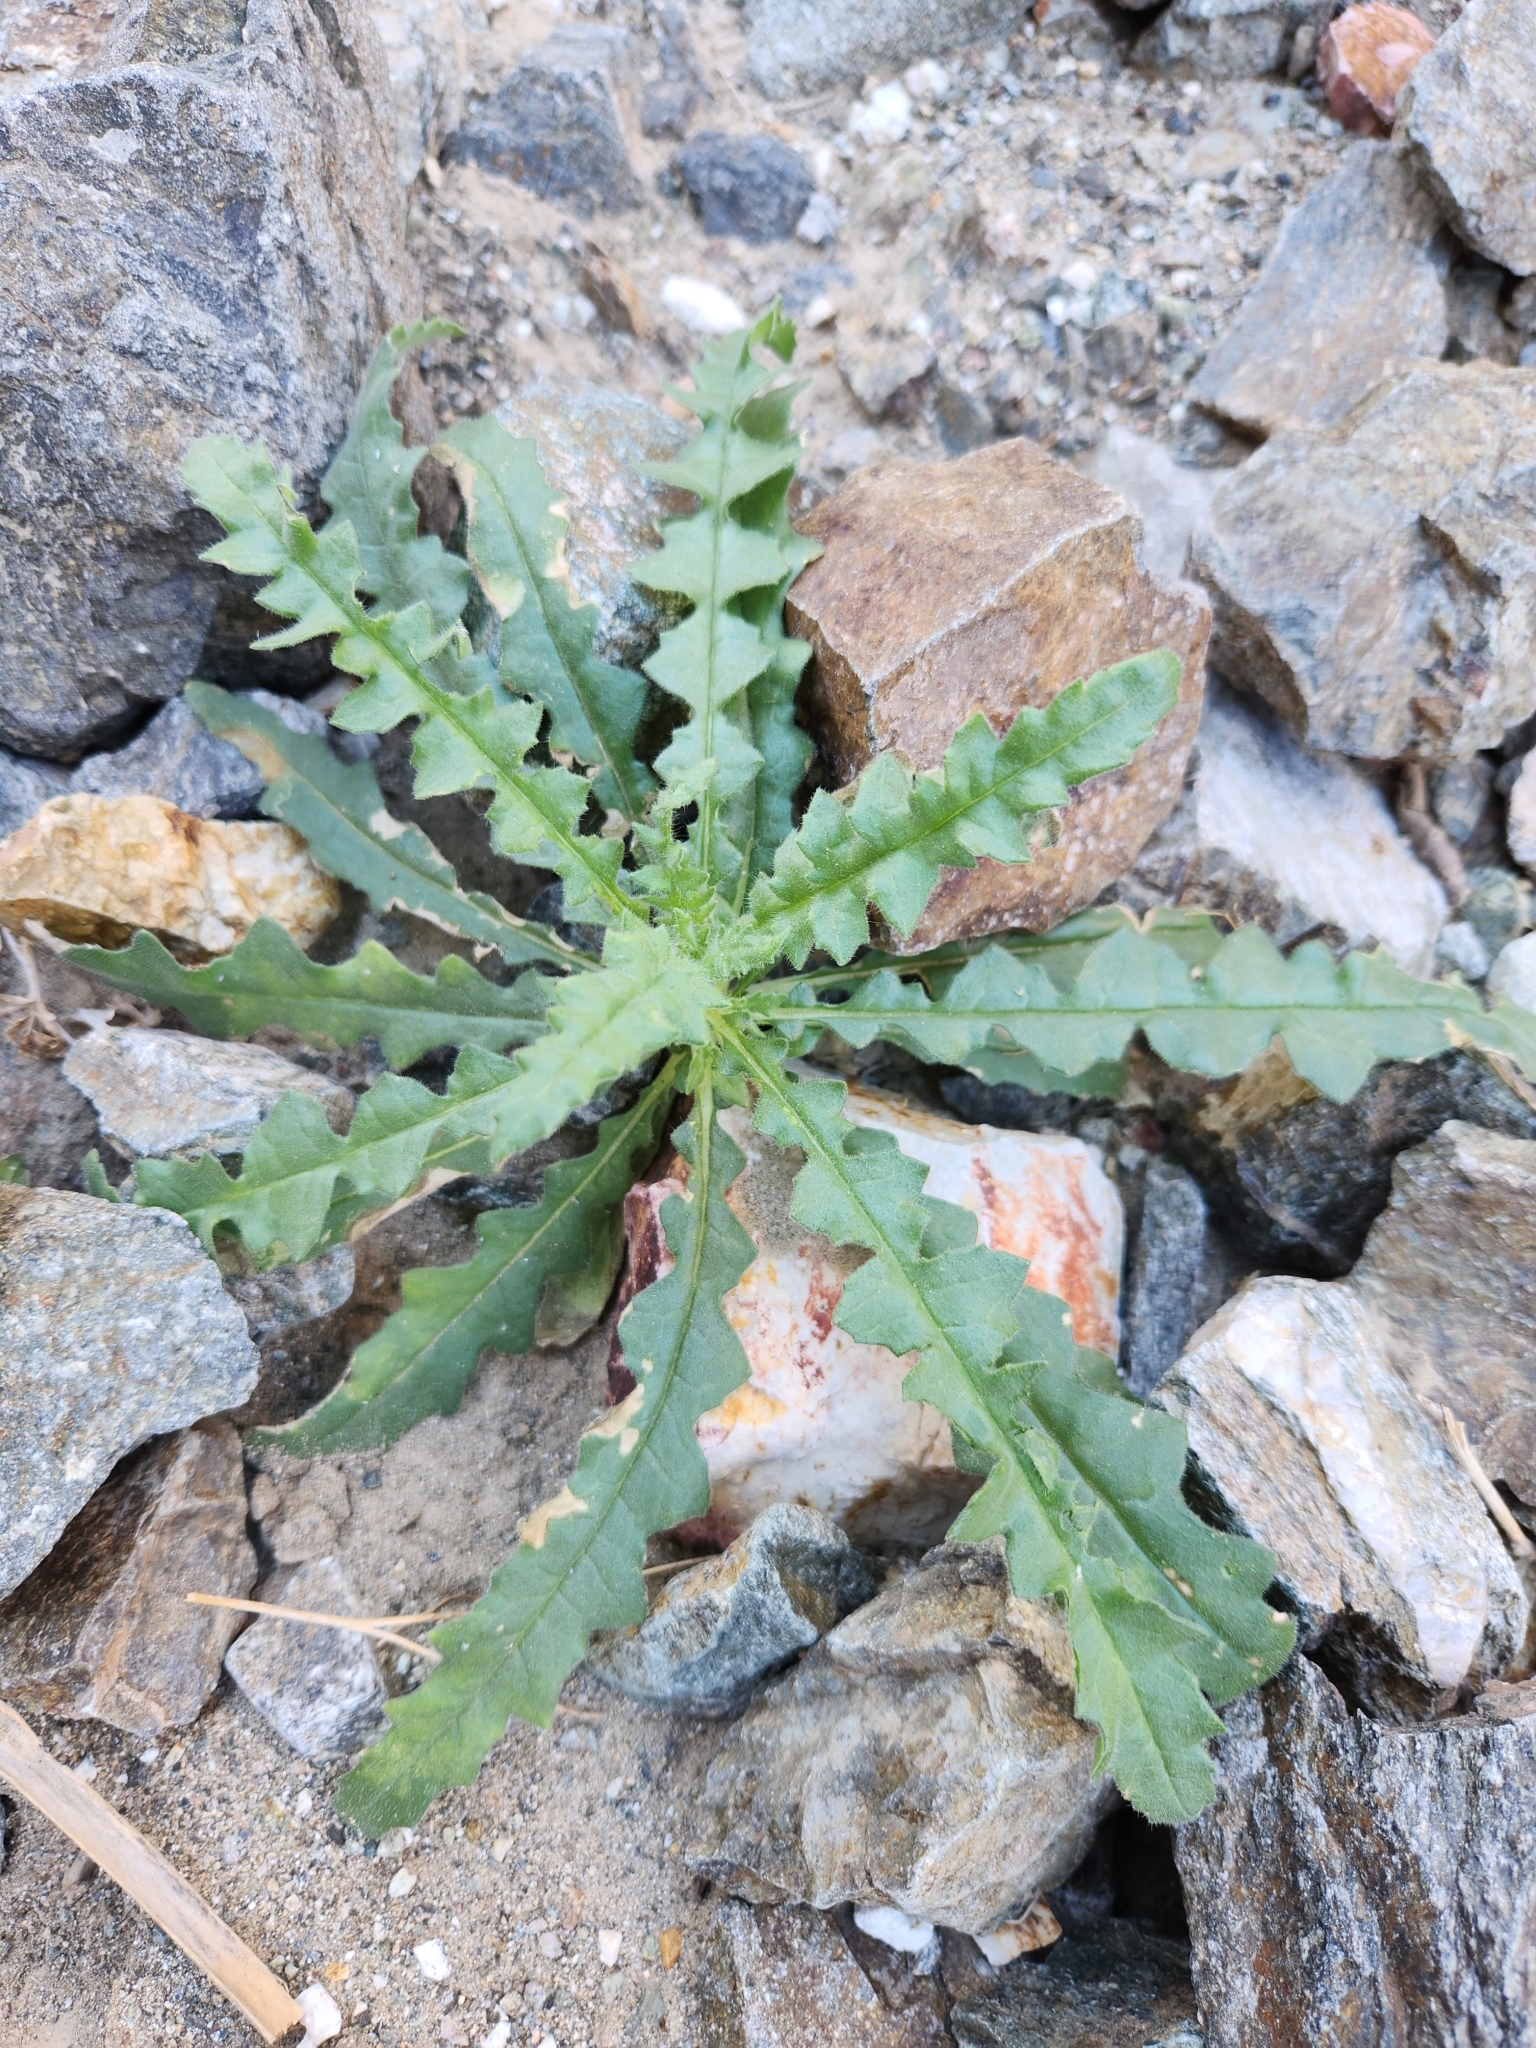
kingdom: Plantae
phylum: Tracheophyta
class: Magnoliopsida
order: Cornales
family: Loasaceae
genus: Mentzelia
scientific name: Mentzelia involucrata
